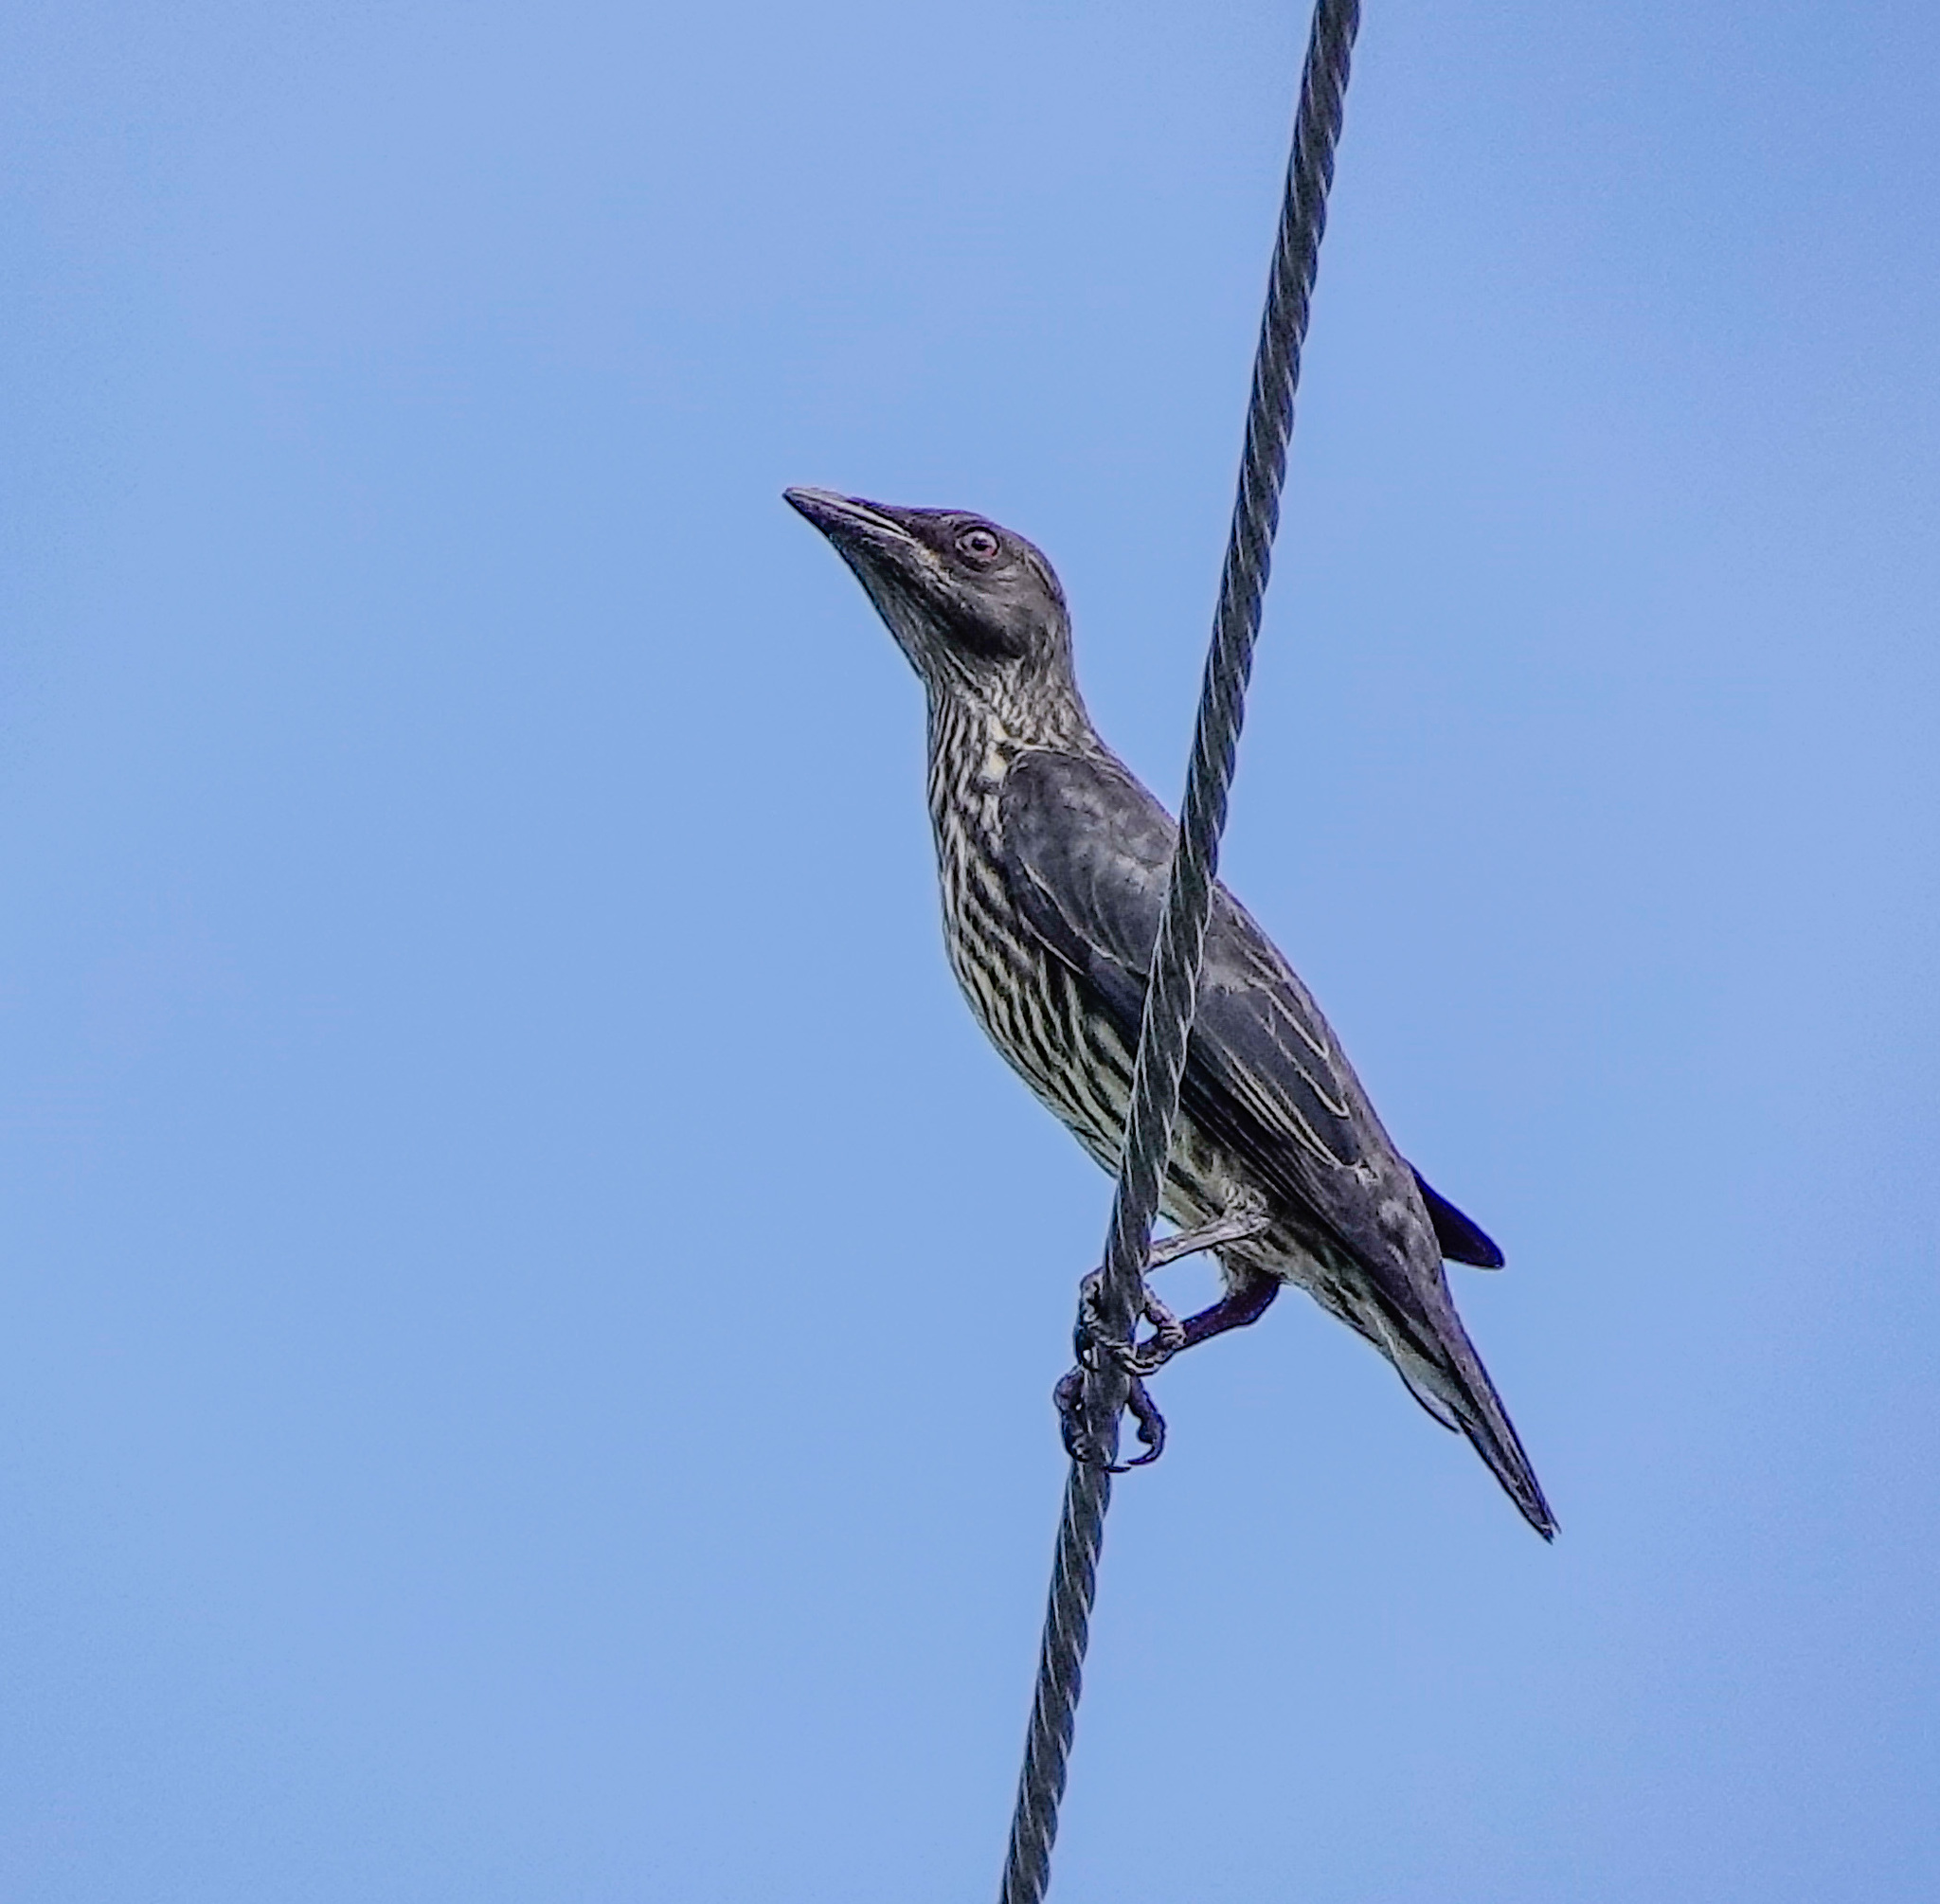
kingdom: Animalia
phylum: Chordata
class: Aves
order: Passeriformes
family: Sturnidae
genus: Aplonis
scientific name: Aplonis panayensis
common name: Asian glossy starling
